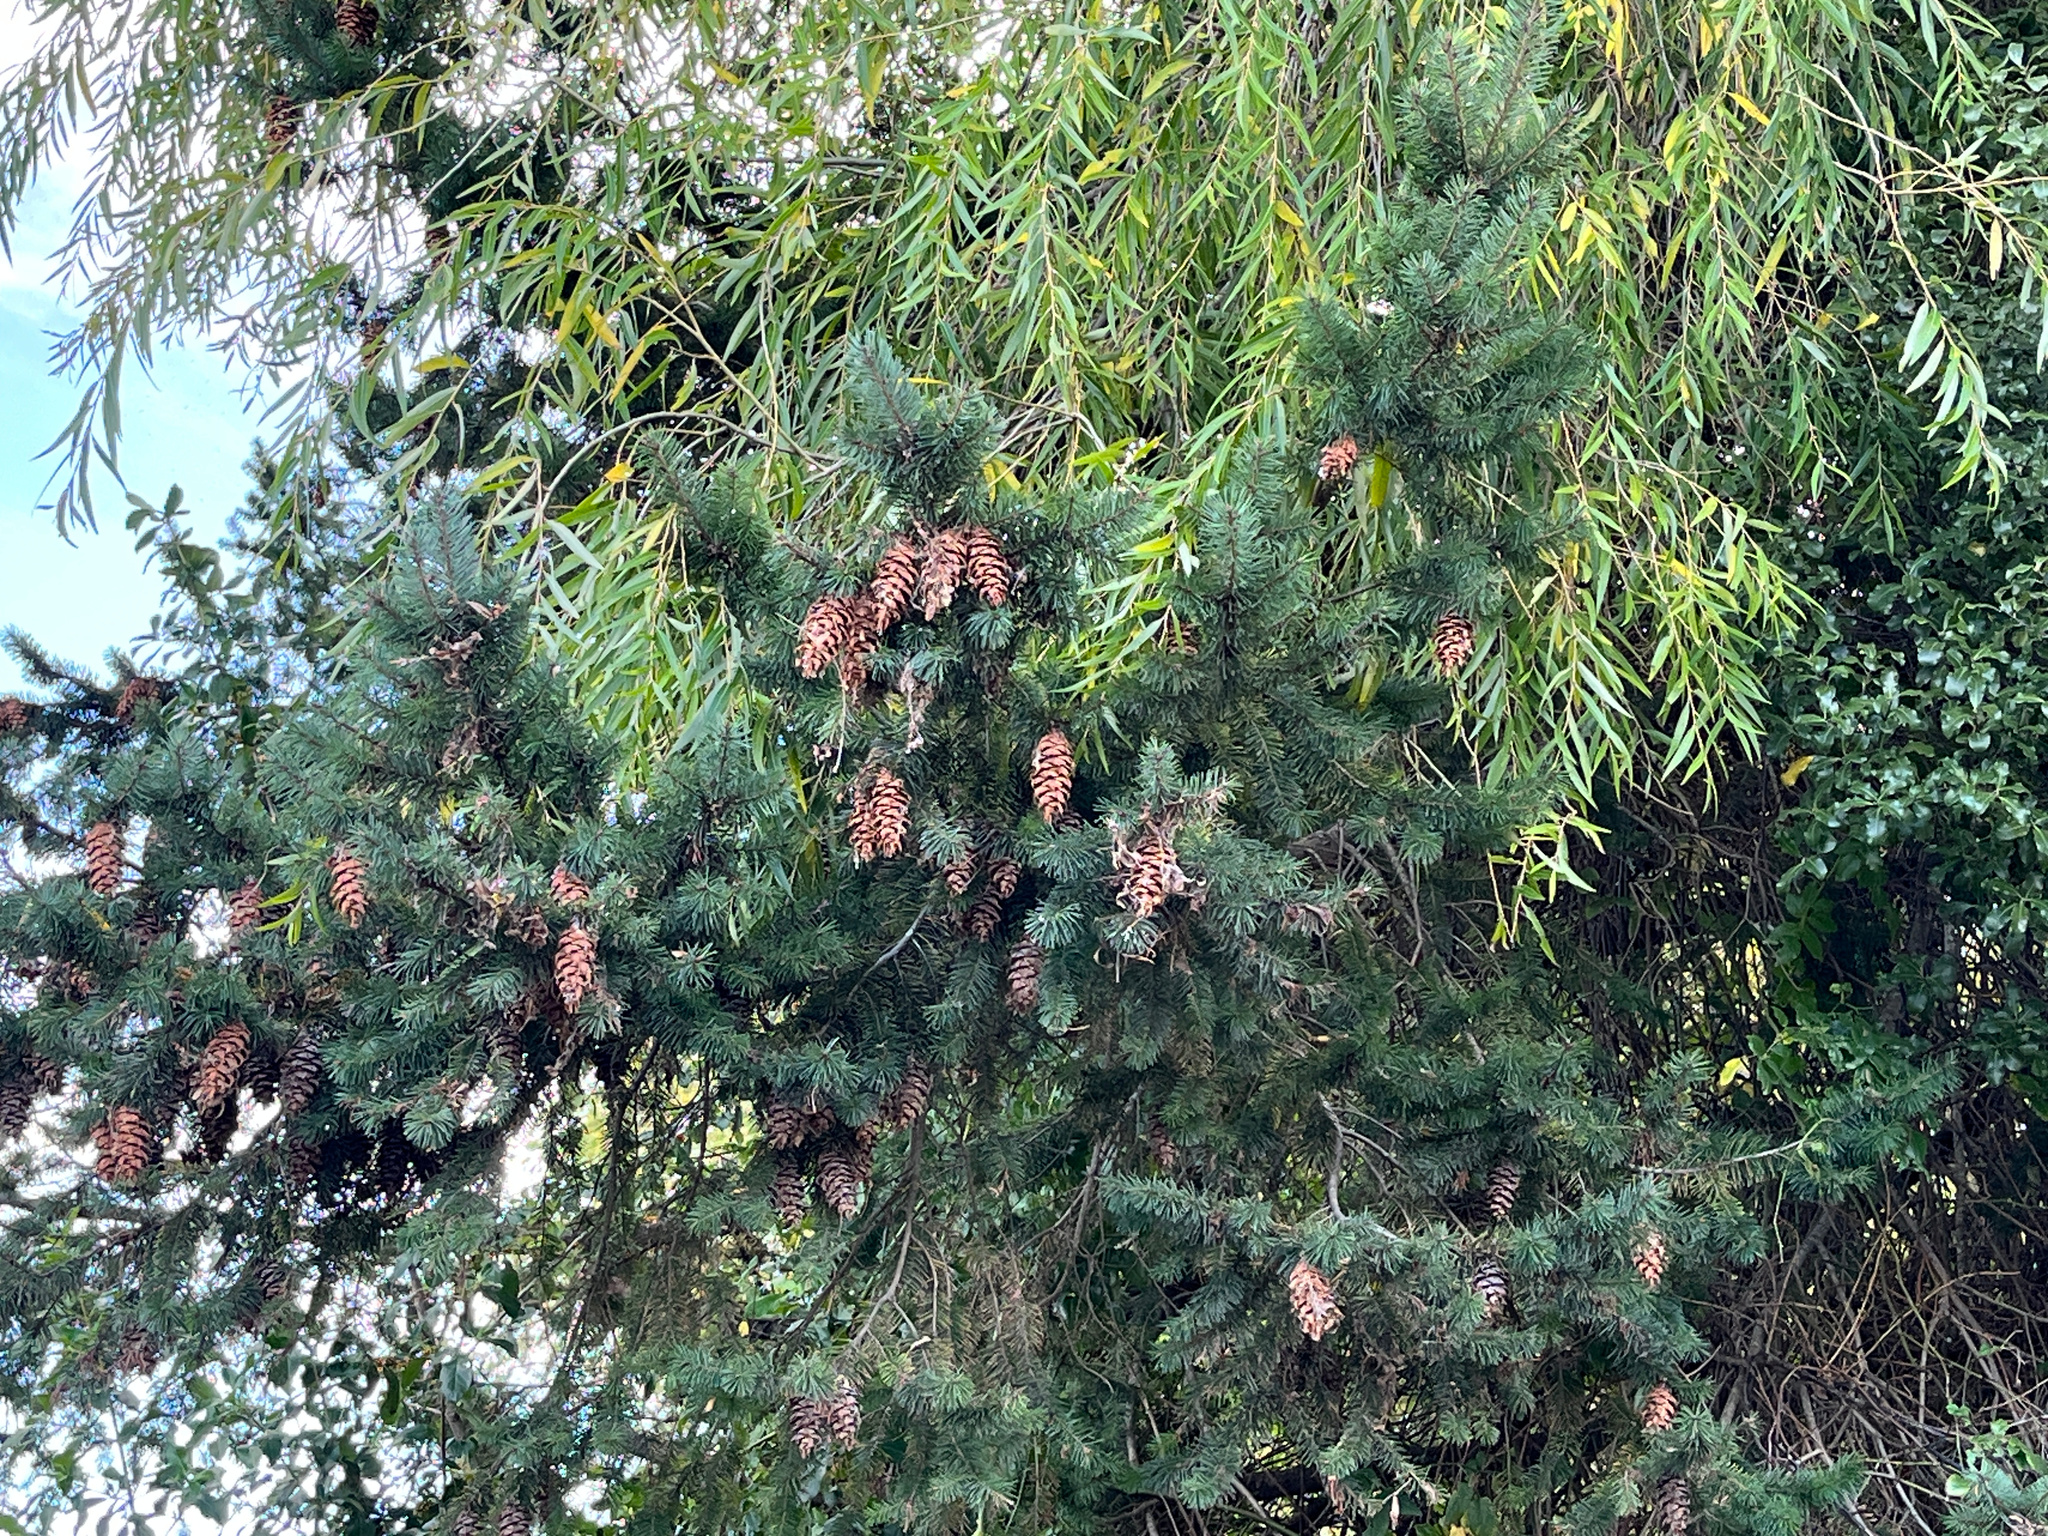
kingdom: Plantae
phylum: Tracheophyta
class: Pinopsida
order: Pinales
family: Pinaceae
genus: Pseudotsuga
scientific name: Pseudotsuga menziesii
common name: Douglas fir
